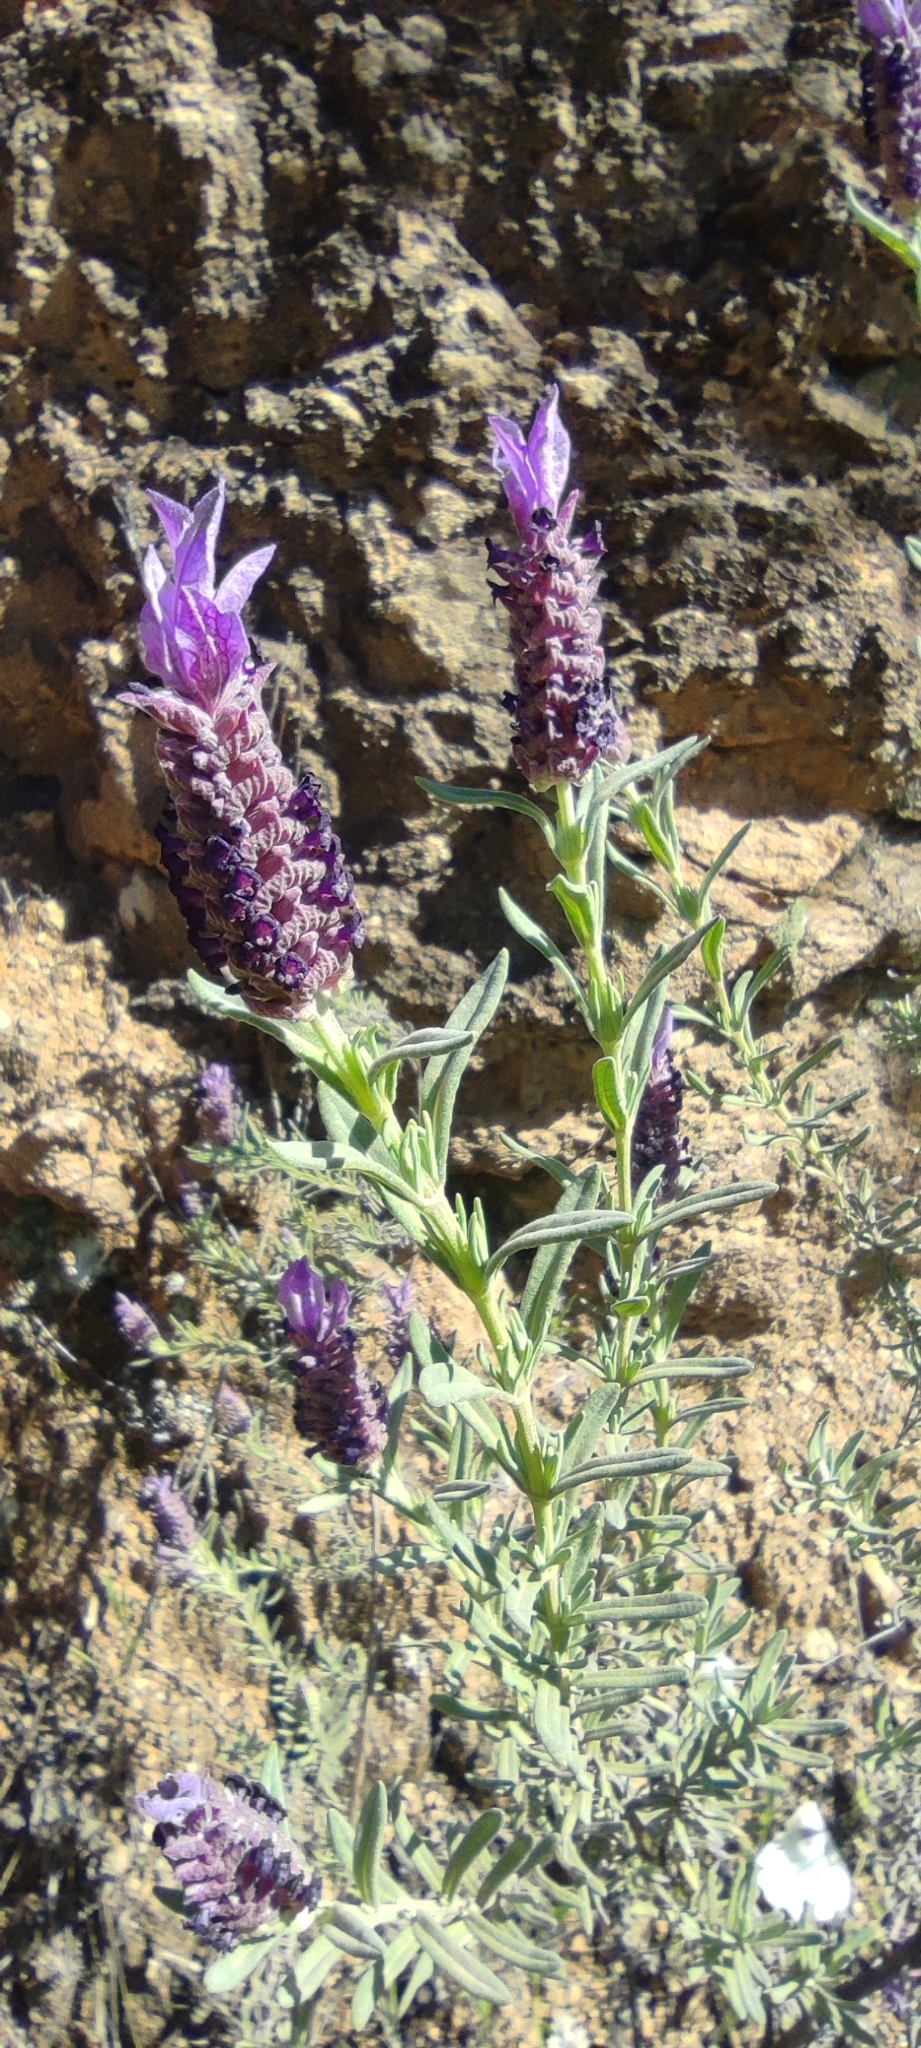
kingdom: Plantae
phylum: Tracheophyta
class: Magnoliopsida
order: Lamiales
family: Lamiaceae
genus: Lavandula
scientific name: Lavandula stoechas
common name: French lavender
